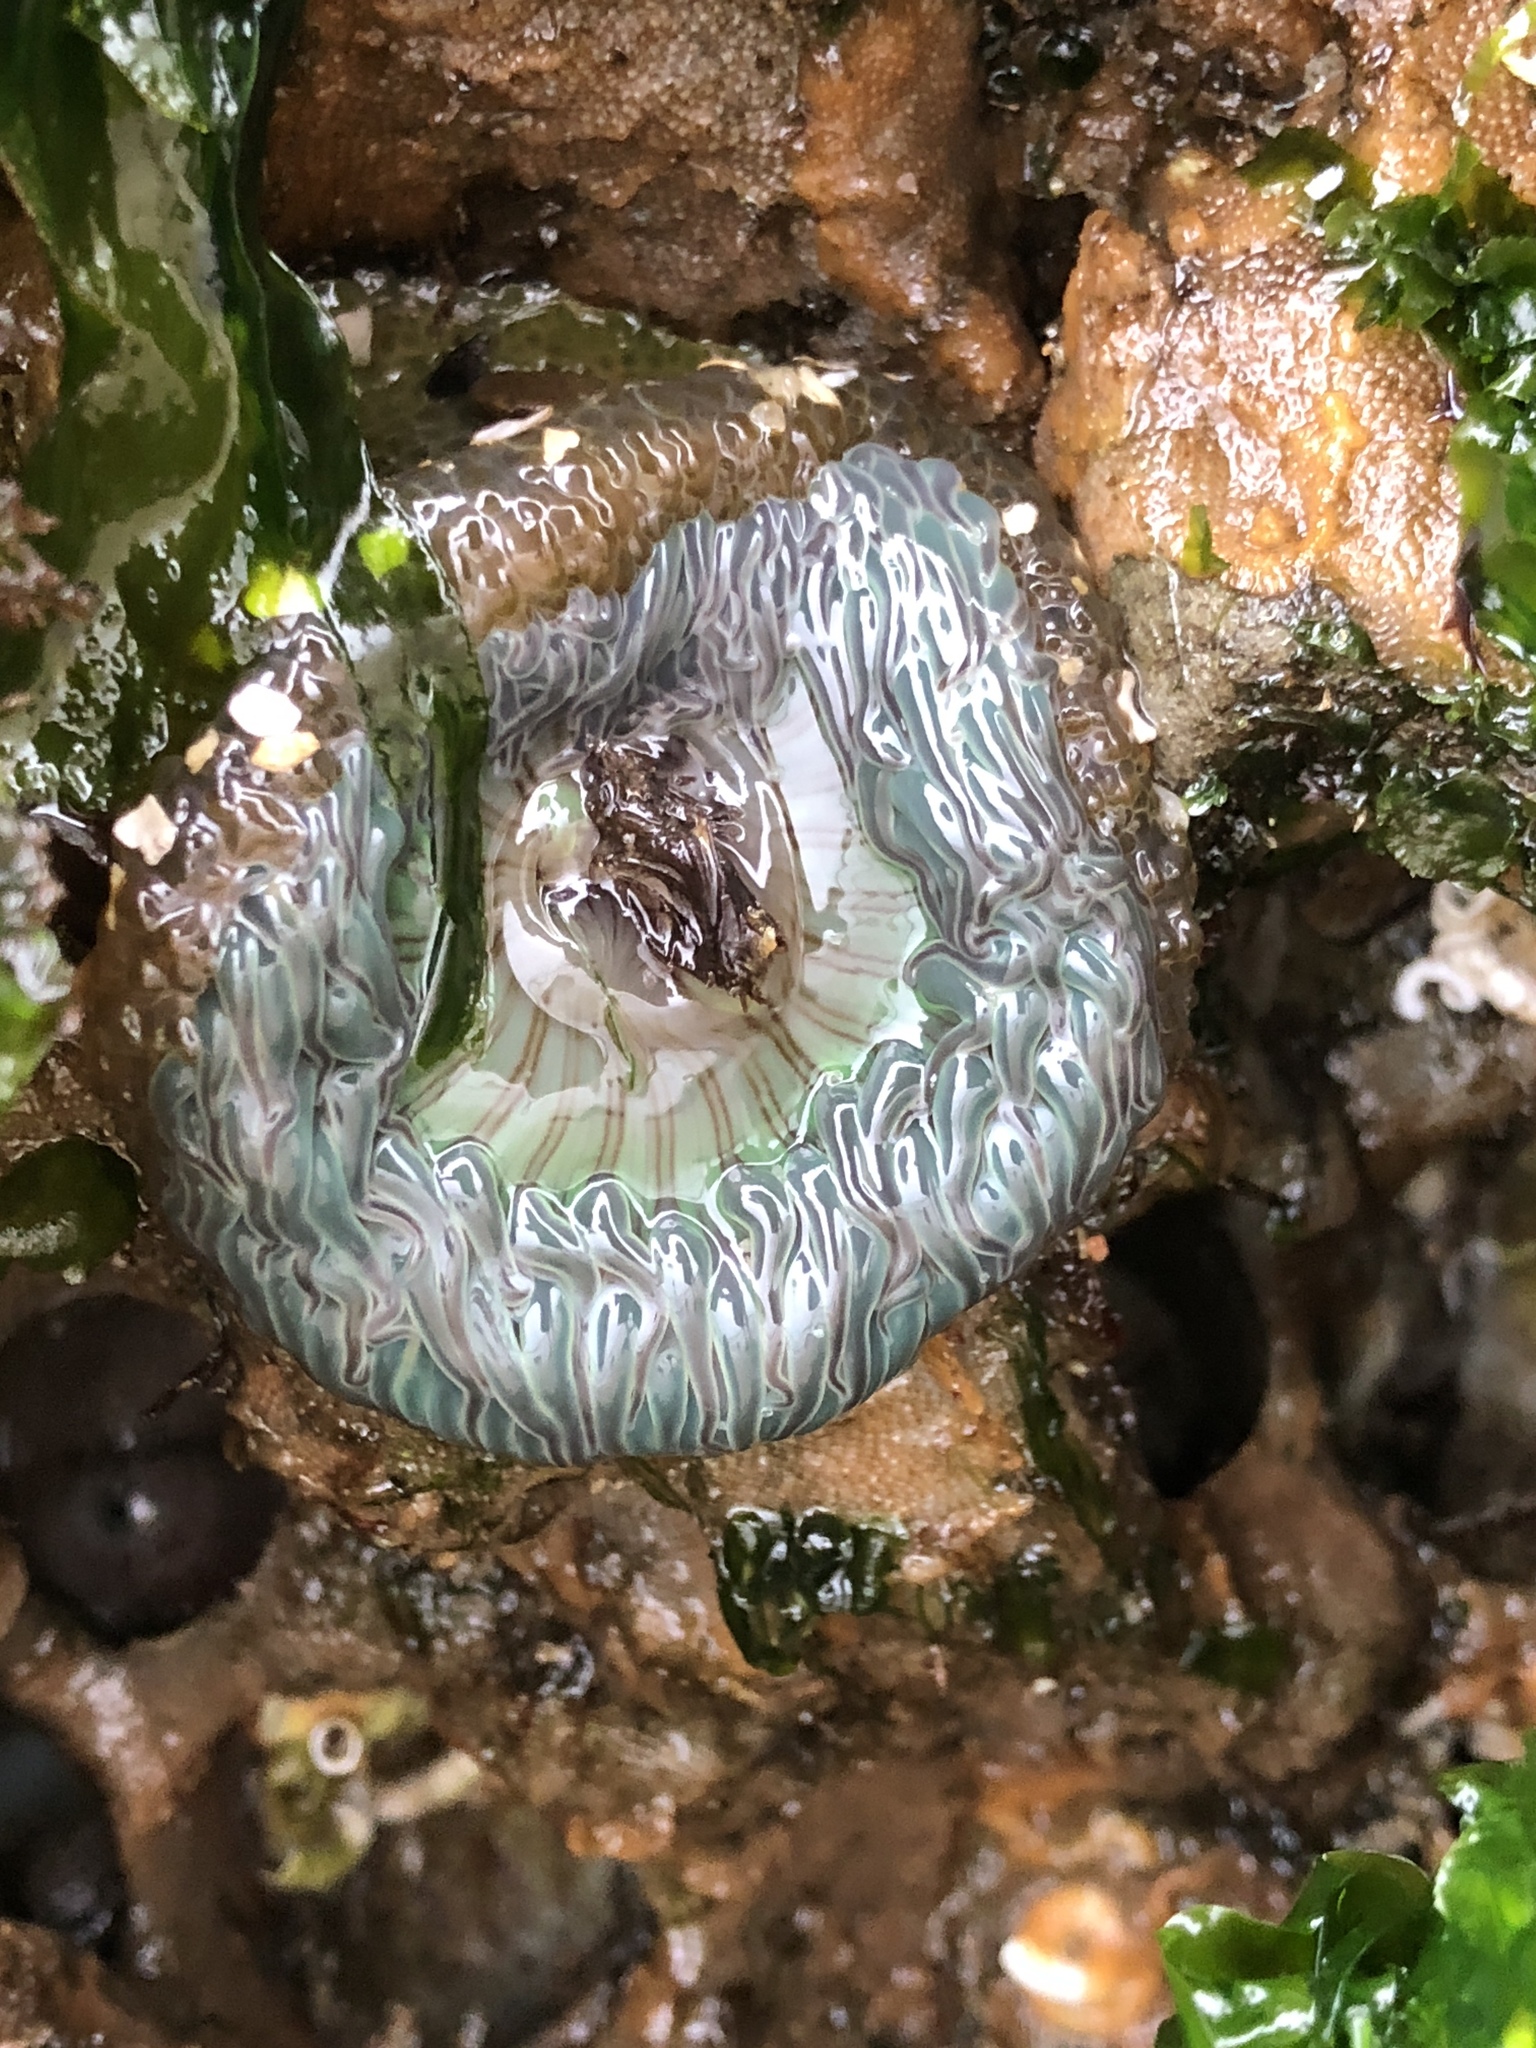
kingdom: Animalia
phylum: Cnidaria
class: Anthozoa
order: Actiniaria
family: Actiniidae
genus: Anthopleura
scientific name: Anthopleura sola
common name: Sun anemone
